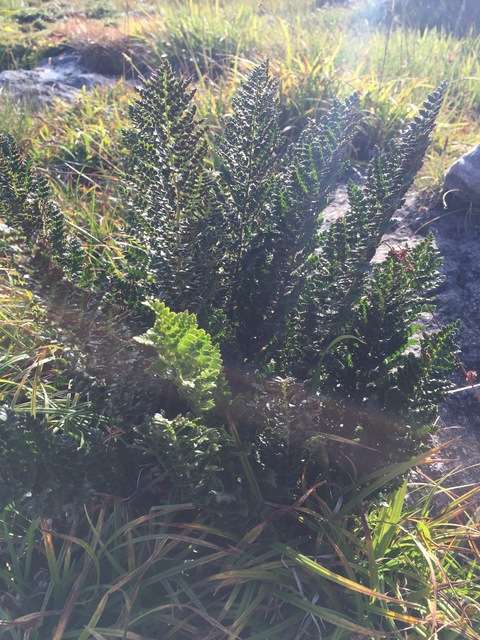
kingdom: Plantae
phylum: Tracheophyta
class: Polypodiopsida
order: Polypodiales
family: Dryopteridaceae
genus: Polystichum
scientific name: Polystichum proliferum
